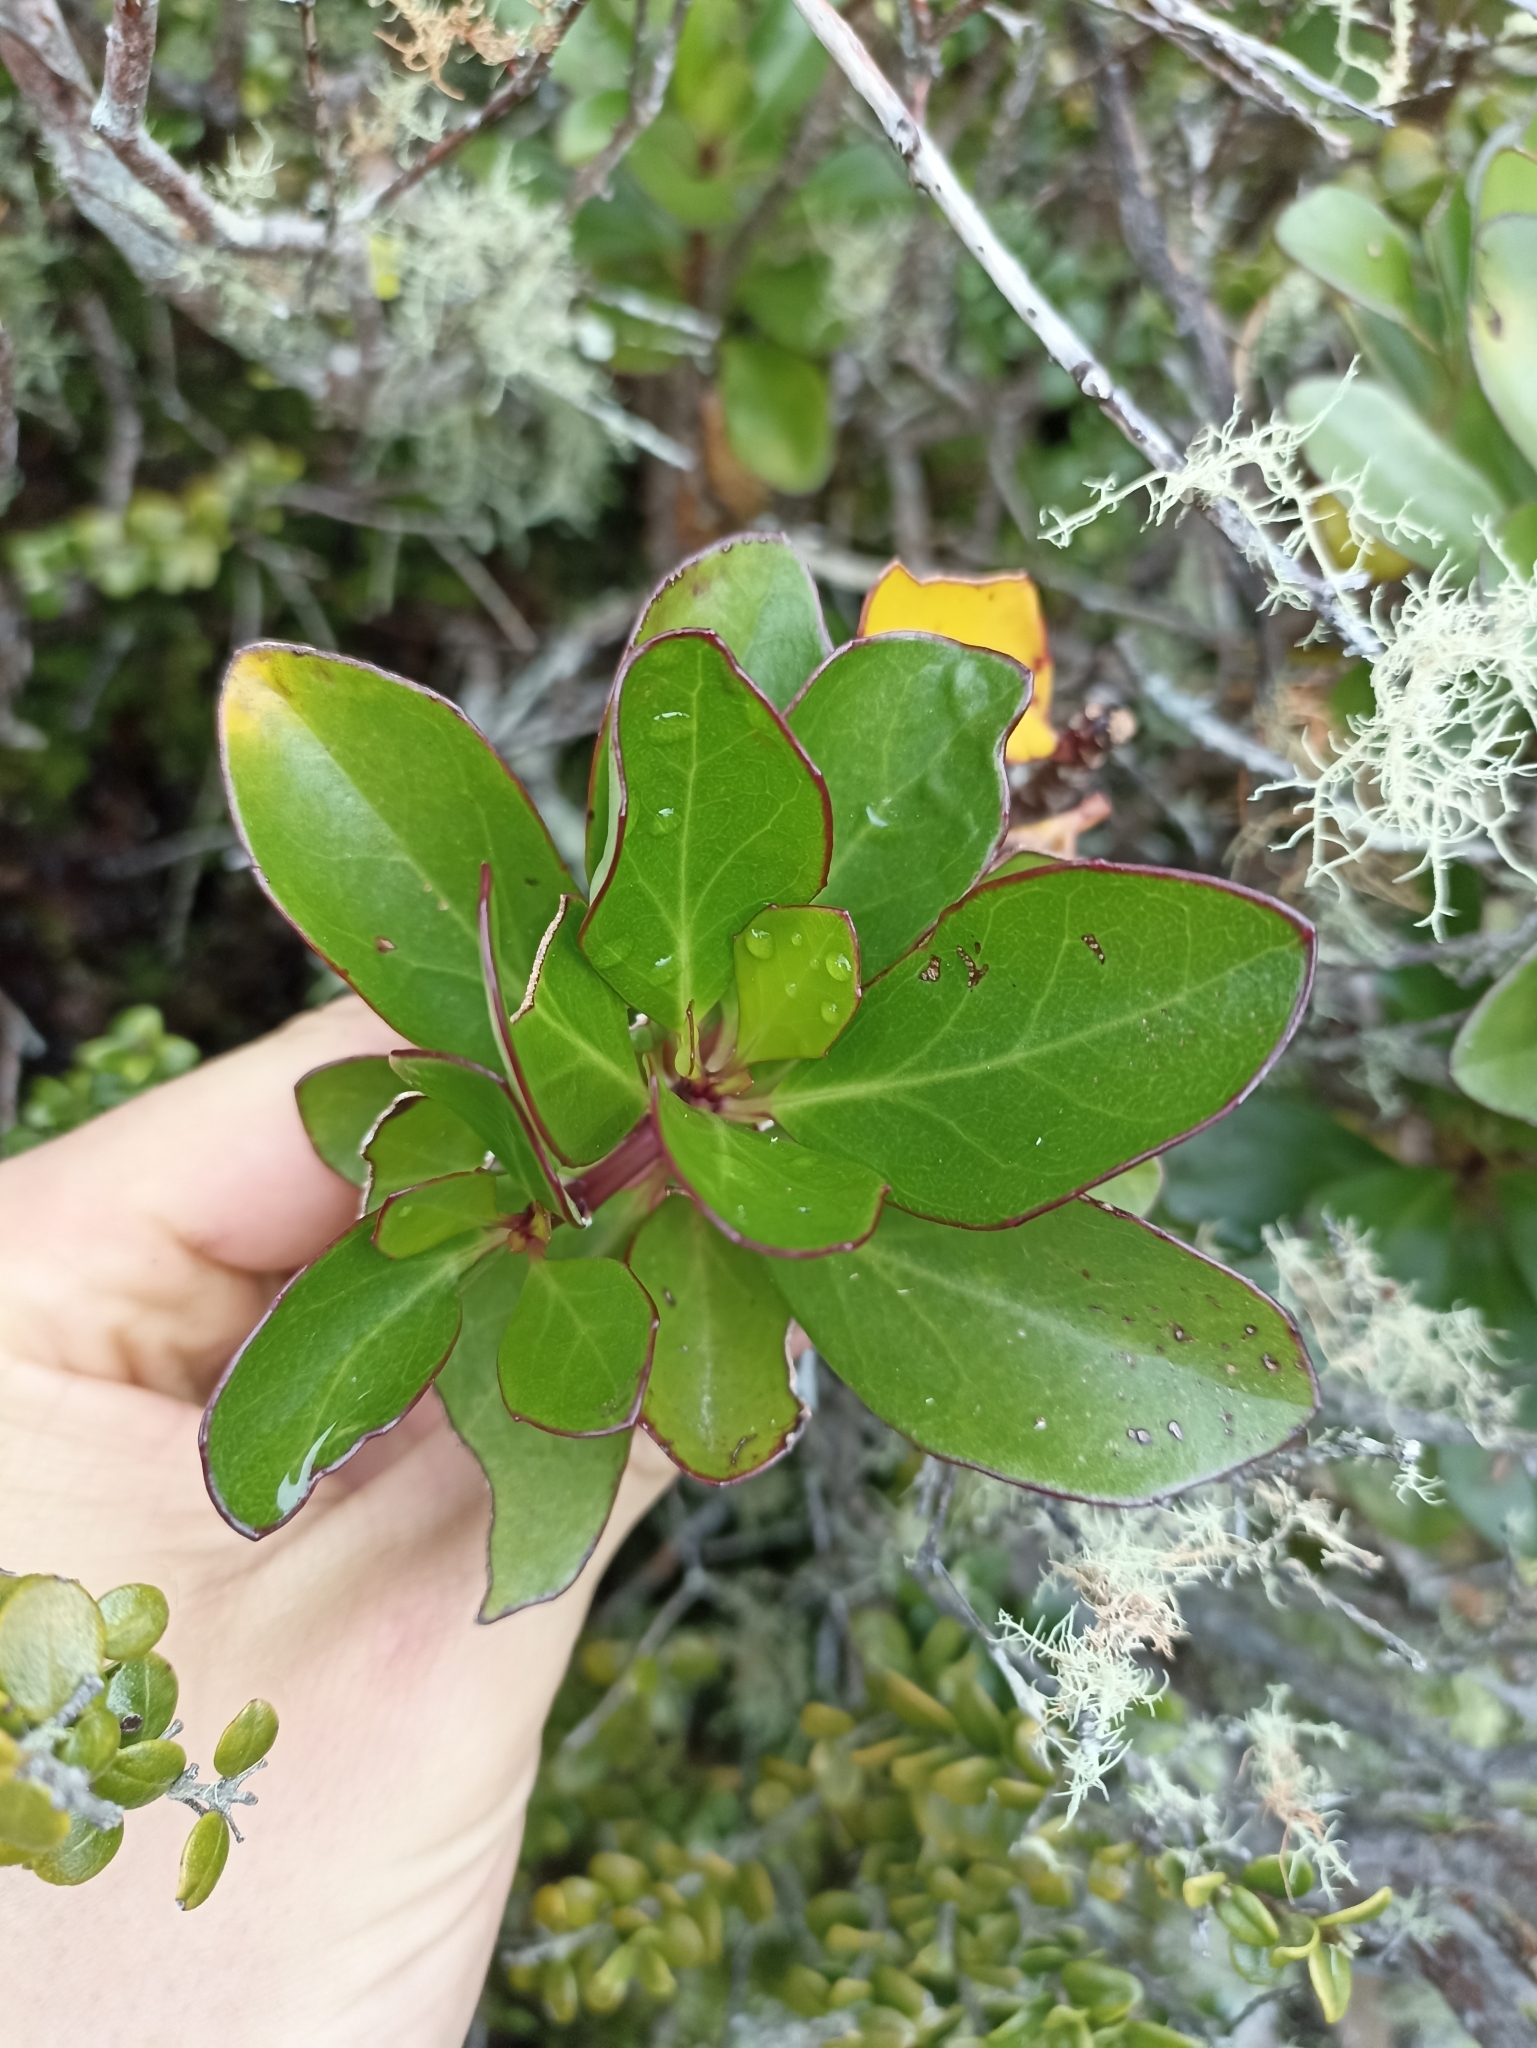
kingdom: Plantae
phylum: Tracheophyta
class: Magnoliopsida
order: Asterales
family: Asteraceae
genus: Brachyglottis
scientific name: Brachyglottis kirkii
